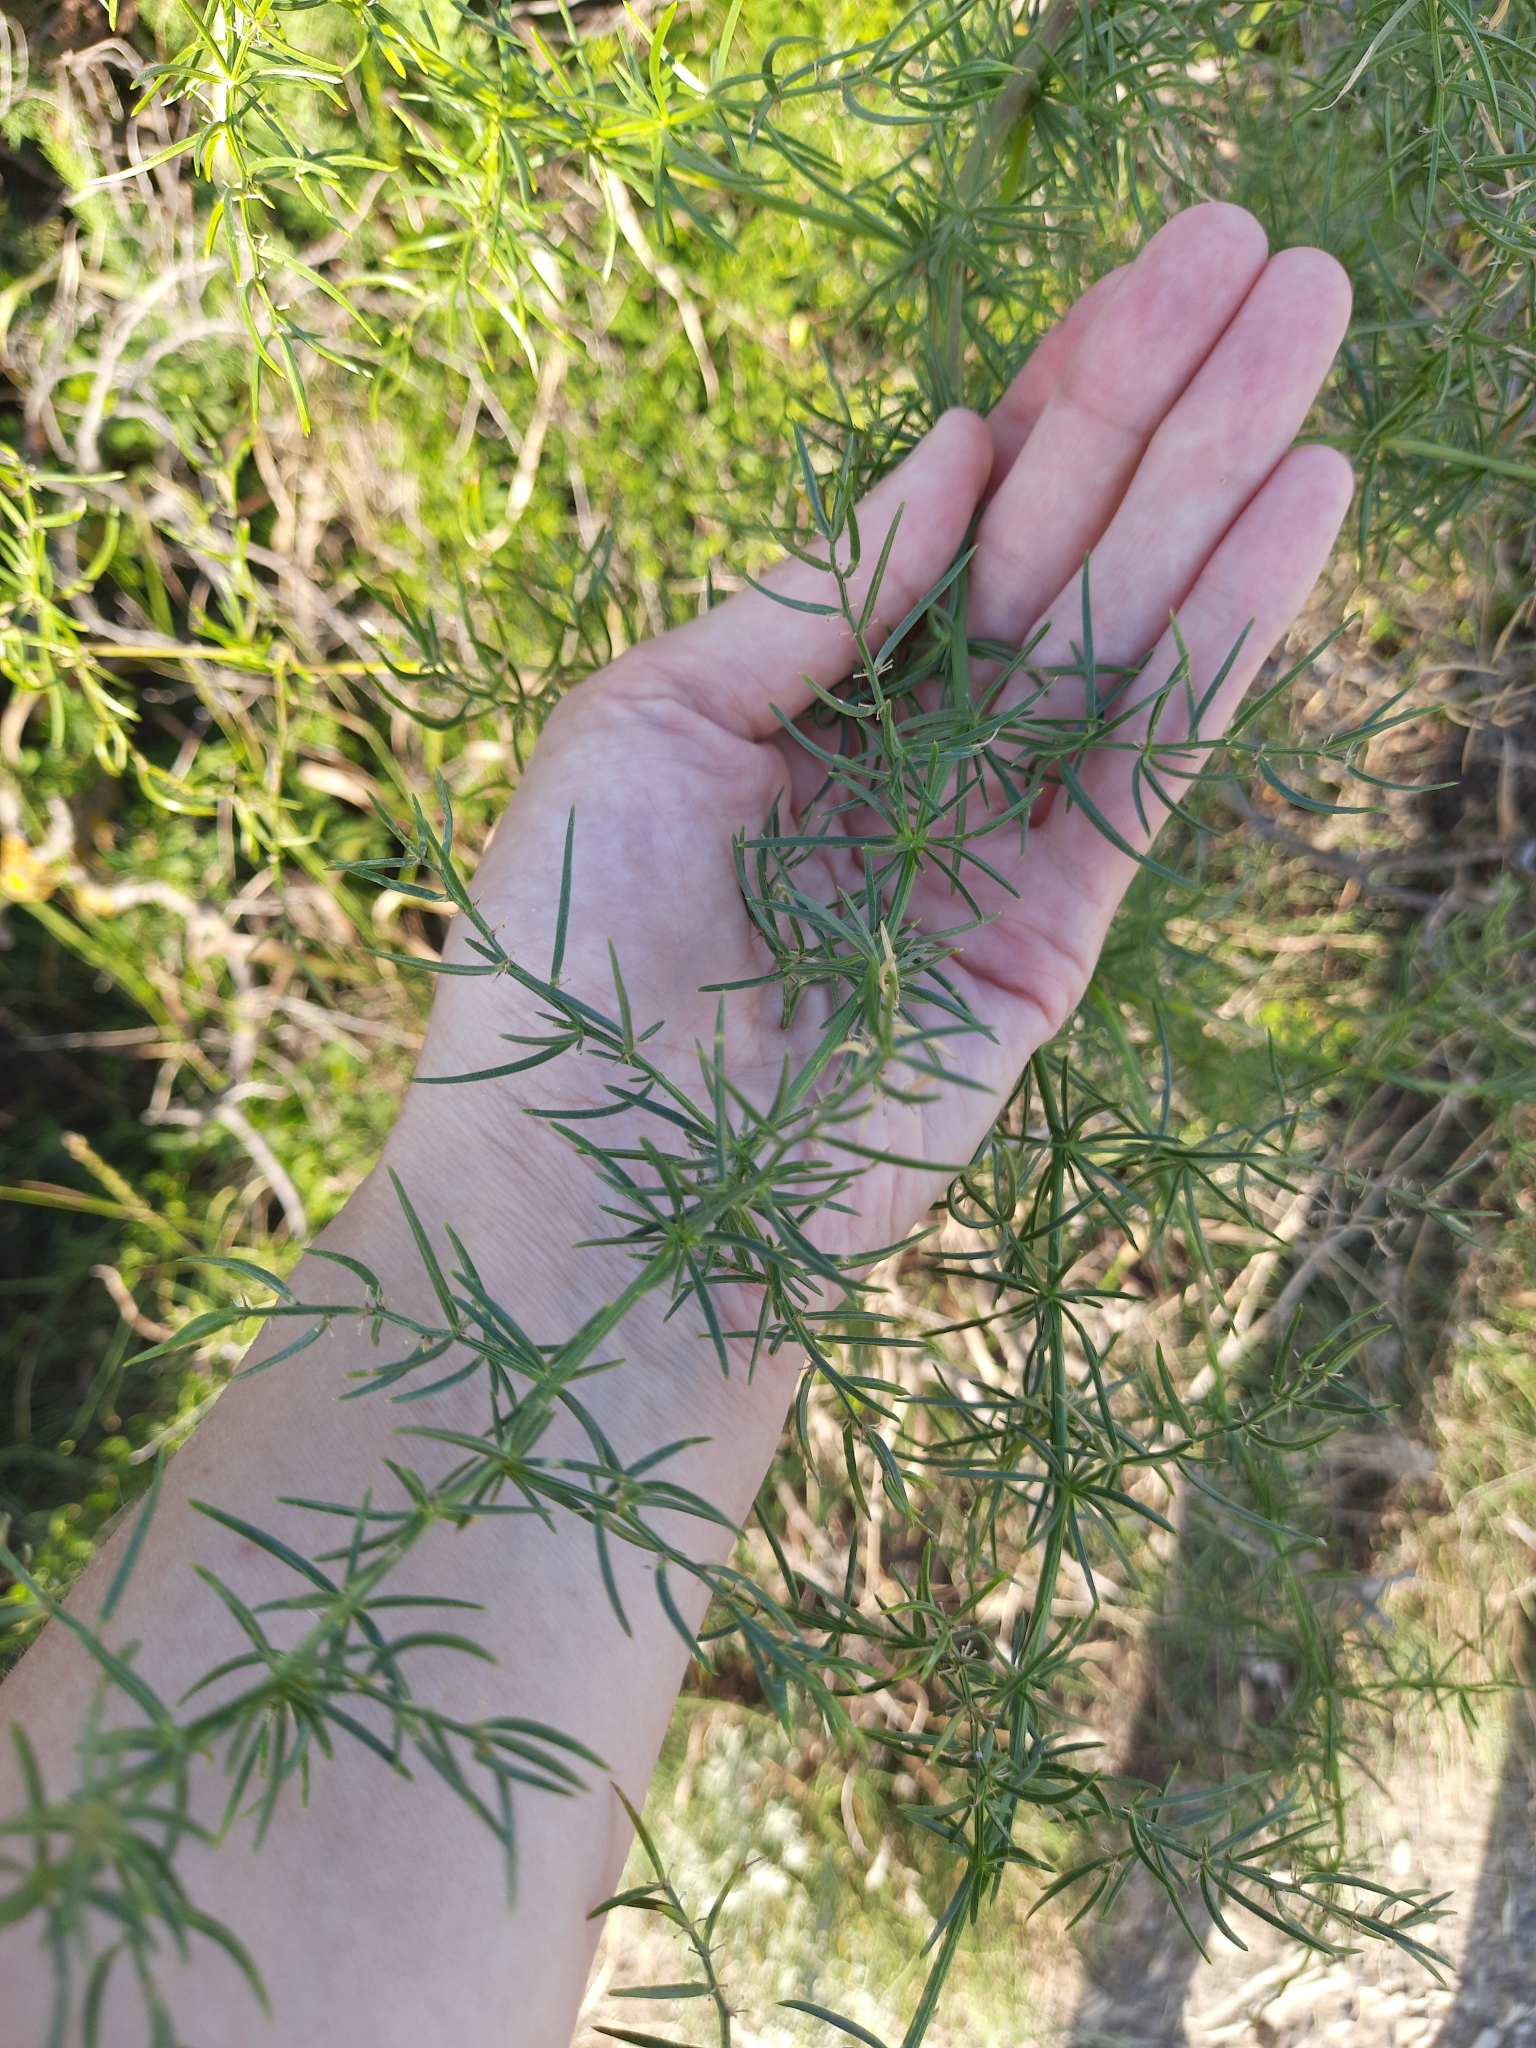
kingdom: Plantae
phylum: Tracheophyta
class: Liliopsida
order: Asparagales
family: Asparagaceae
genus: Asparagus
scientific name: Asparagus verticillatus
